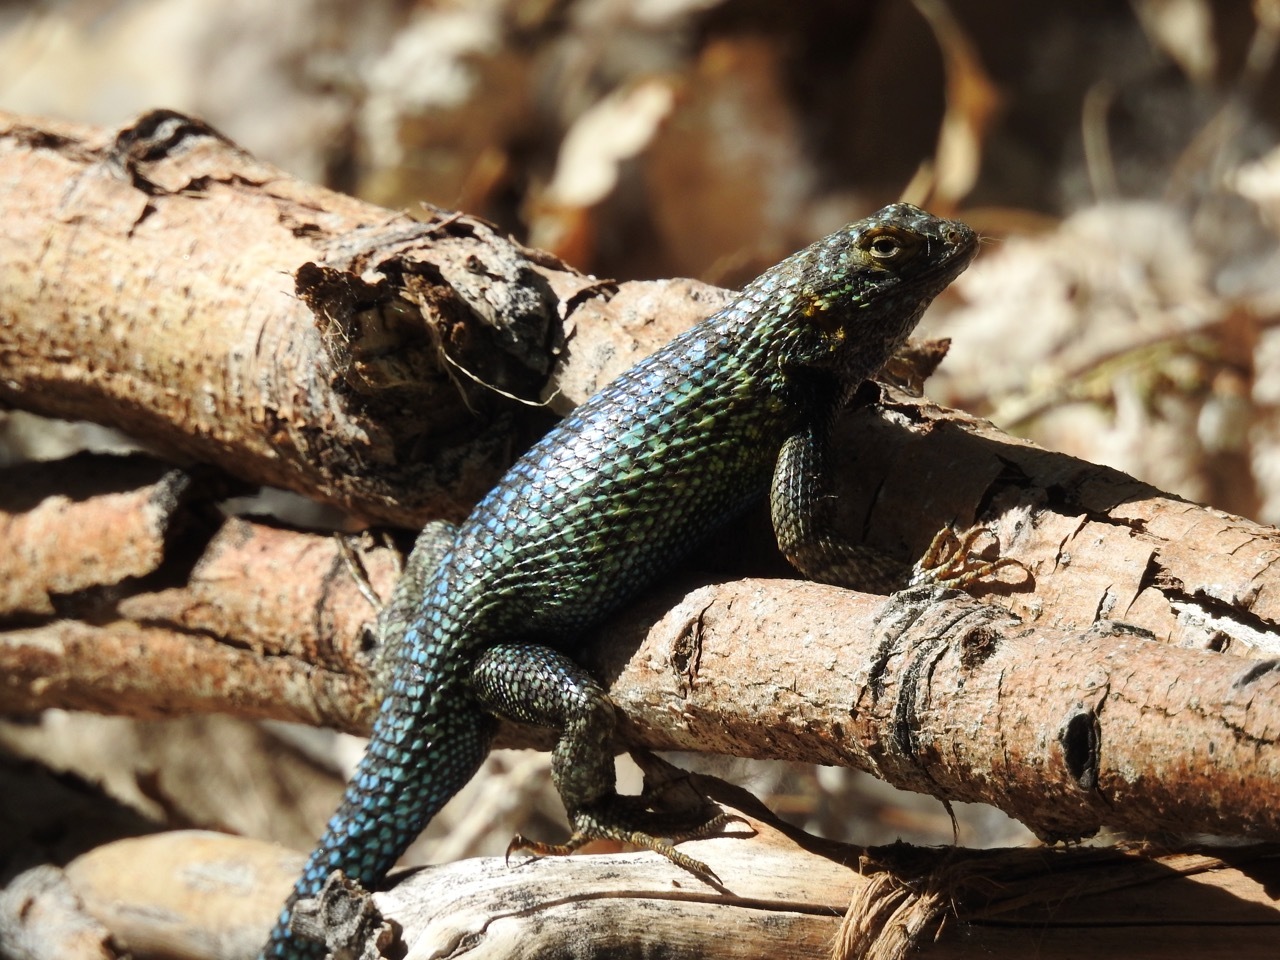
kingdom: Animalia
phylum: Chordata
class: Squamata
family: Phrynosomatidae
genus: Sceloporus
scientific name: Sceloporus occidentalis
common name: Western fence lizard
